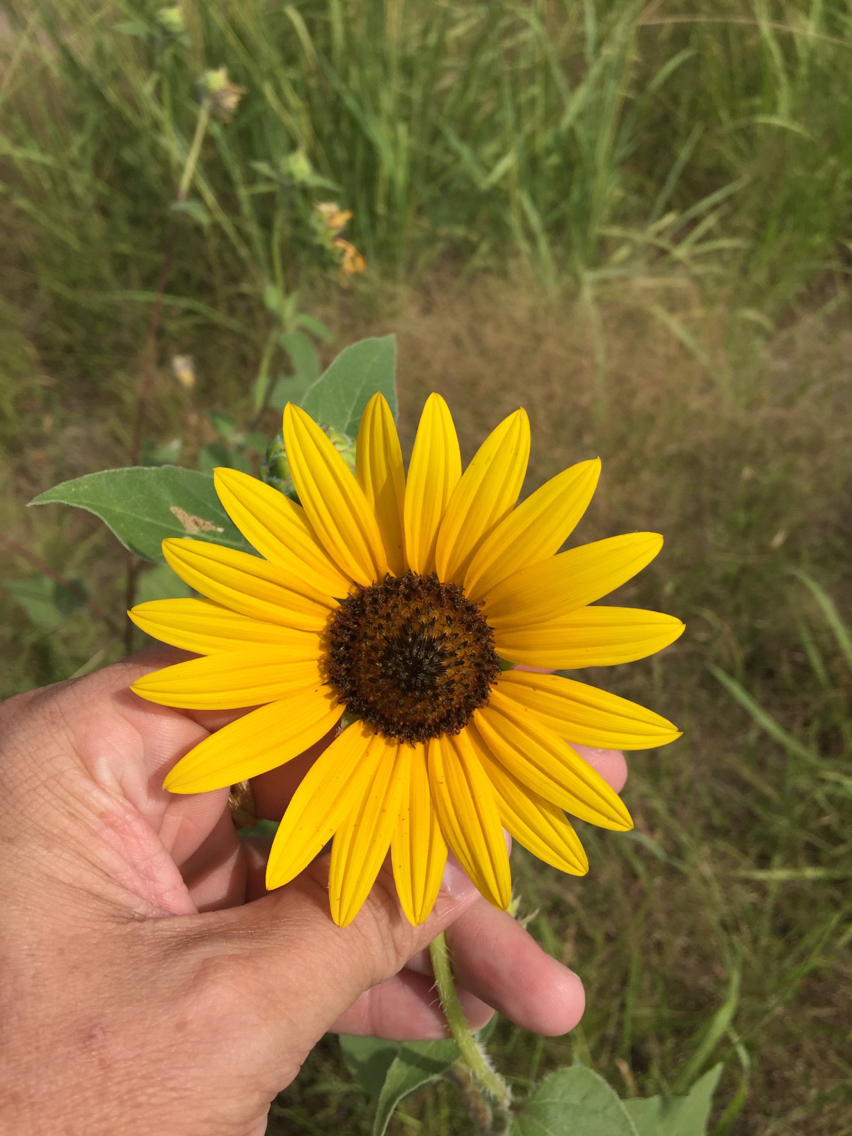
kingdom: Plantae
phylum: Tracheophyta
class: Magnoliopsida
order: Asterales
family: Asteraceae
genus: Helianthus
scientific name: Helianthus annuus
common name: Sunflower
